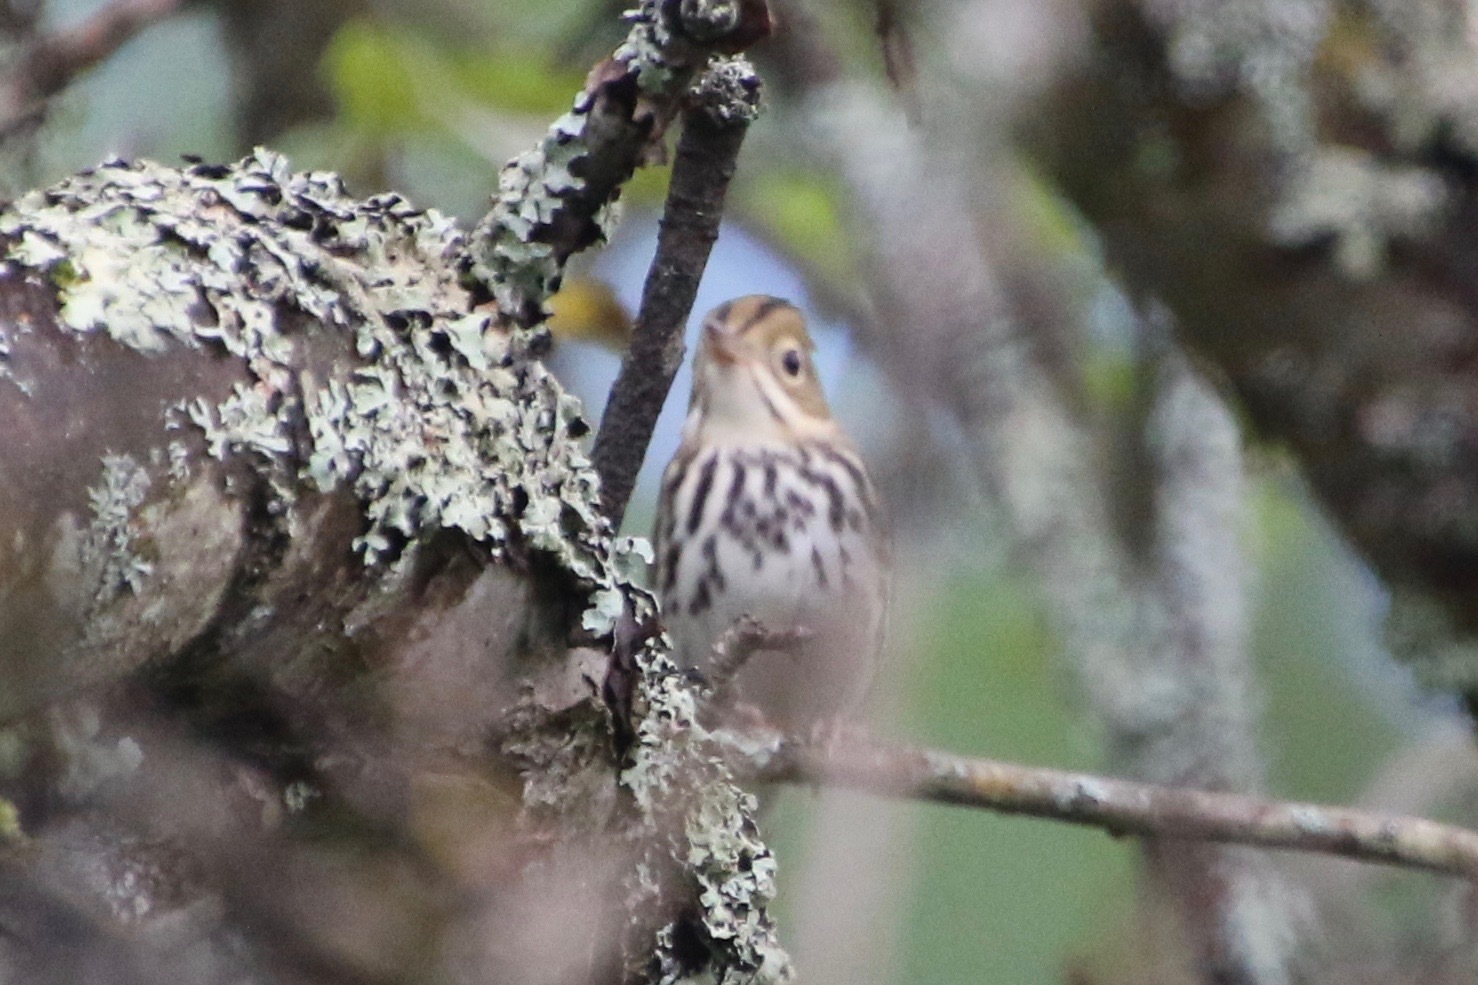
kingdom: Animalia
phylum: Chordata
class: Aves
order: Passeriformes
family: Parulidae
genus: Seiurus
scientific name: Seiurus aurocapilla
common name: Ovenbird
